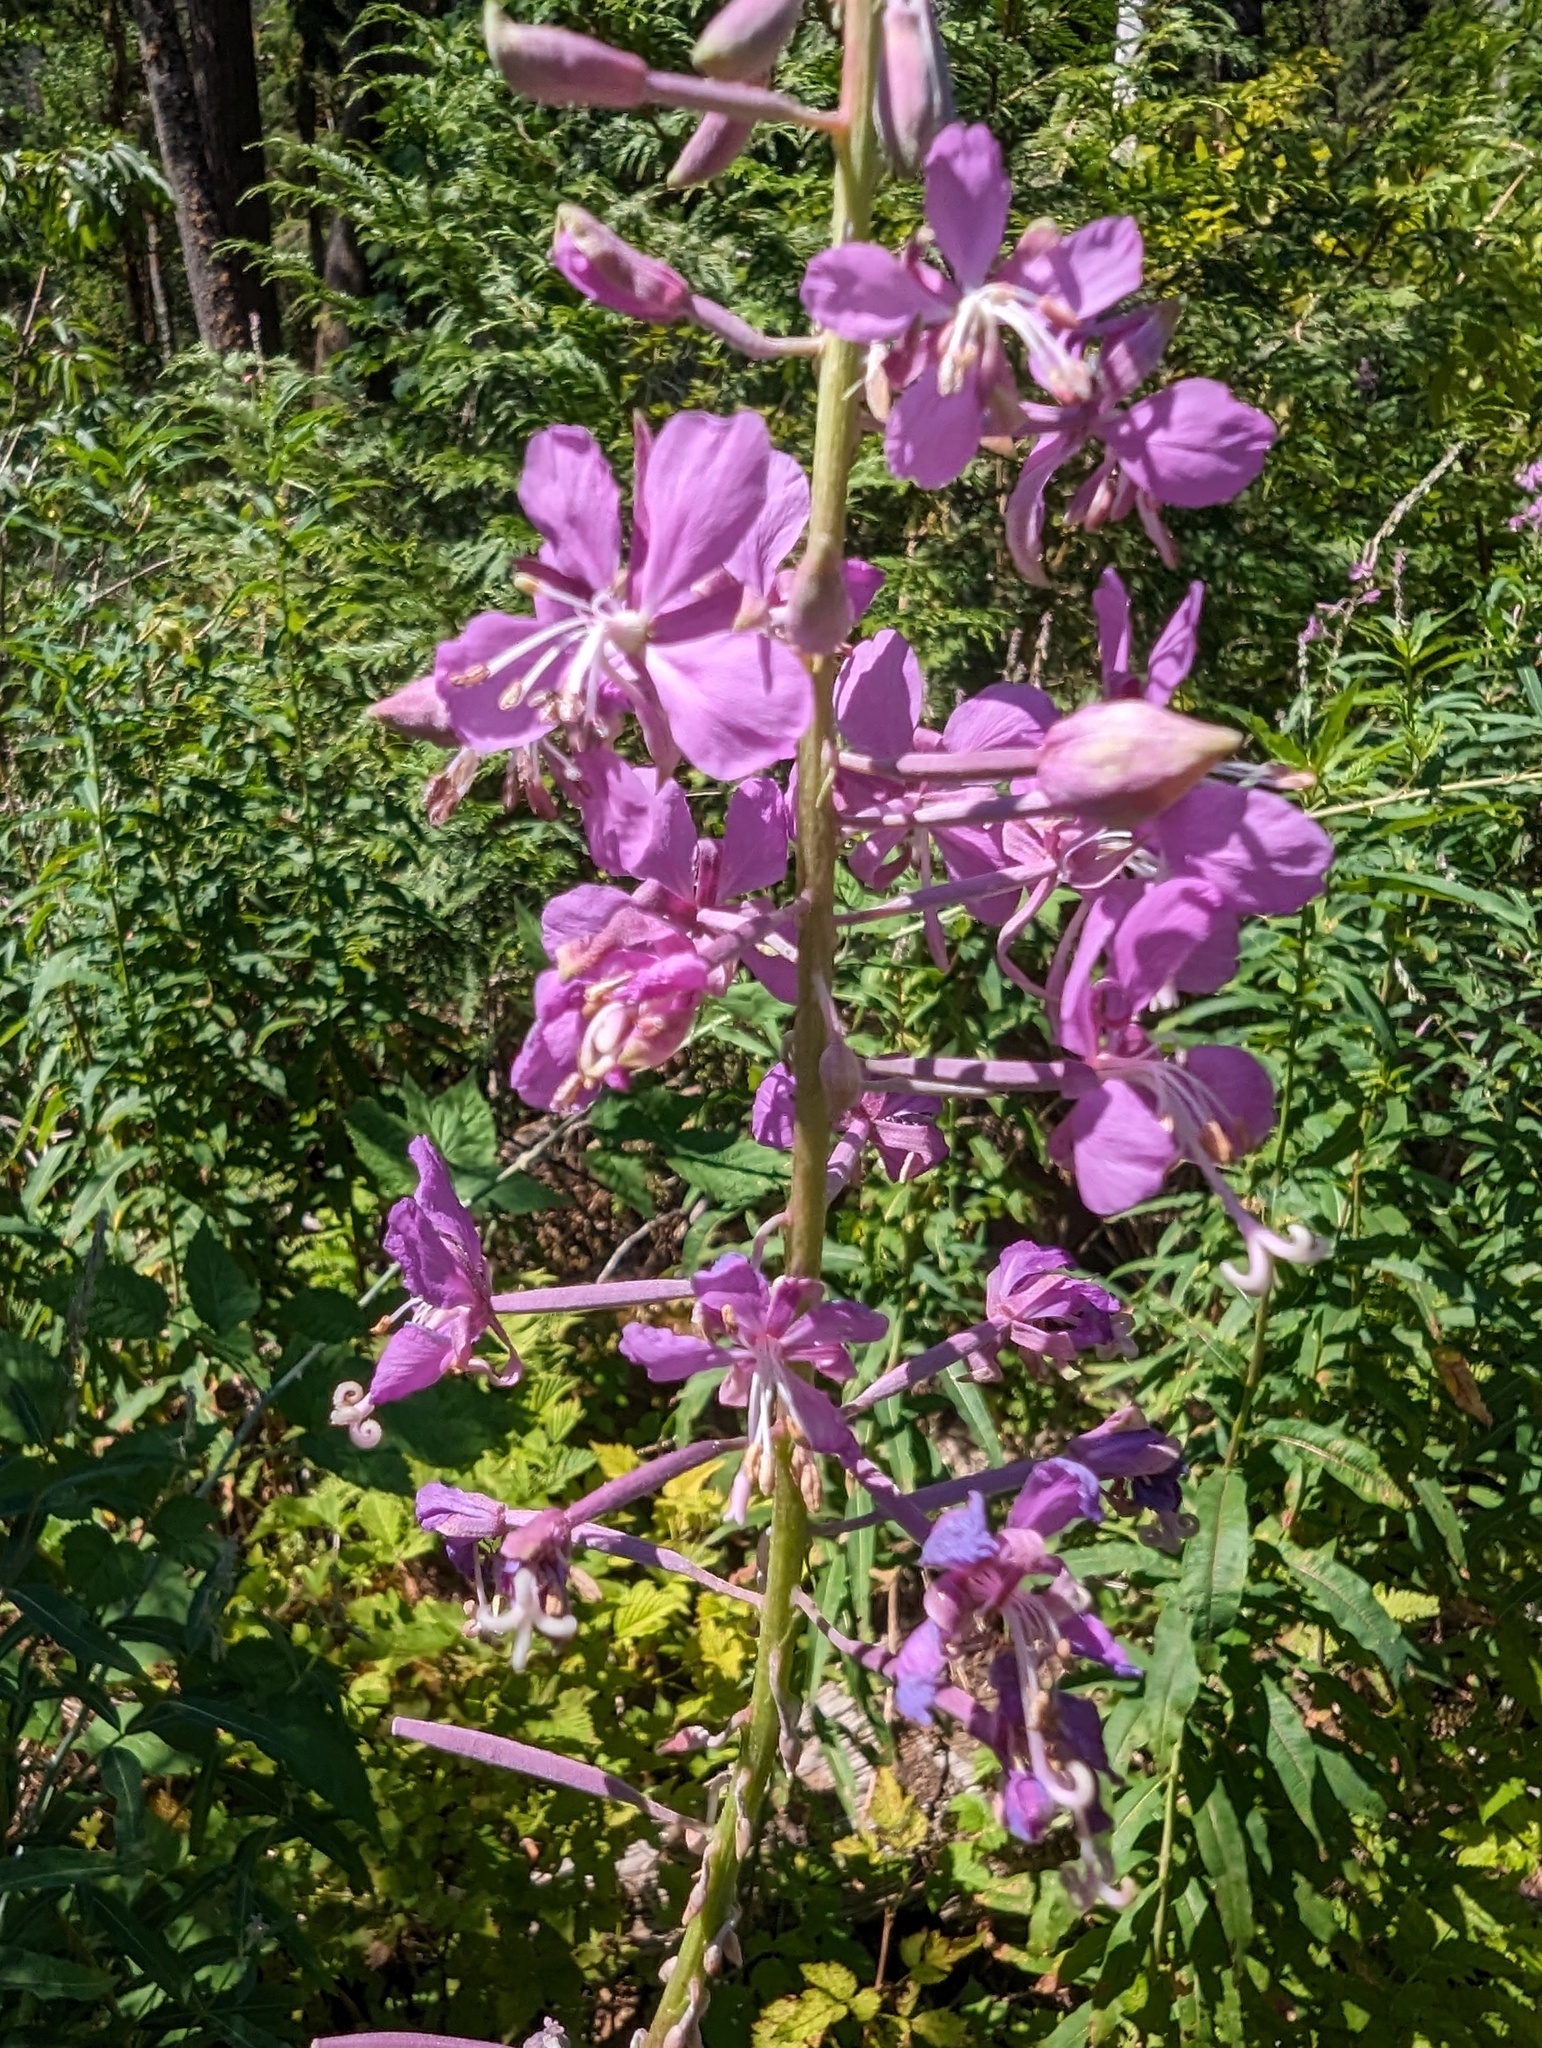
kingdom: Plantae
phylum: Tracheophyta
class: Magnoliopsida
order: Myrtales
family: Onagraceae
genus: Chamaenerion
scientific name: Chamaenerion angustifolium
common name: Fireweed
